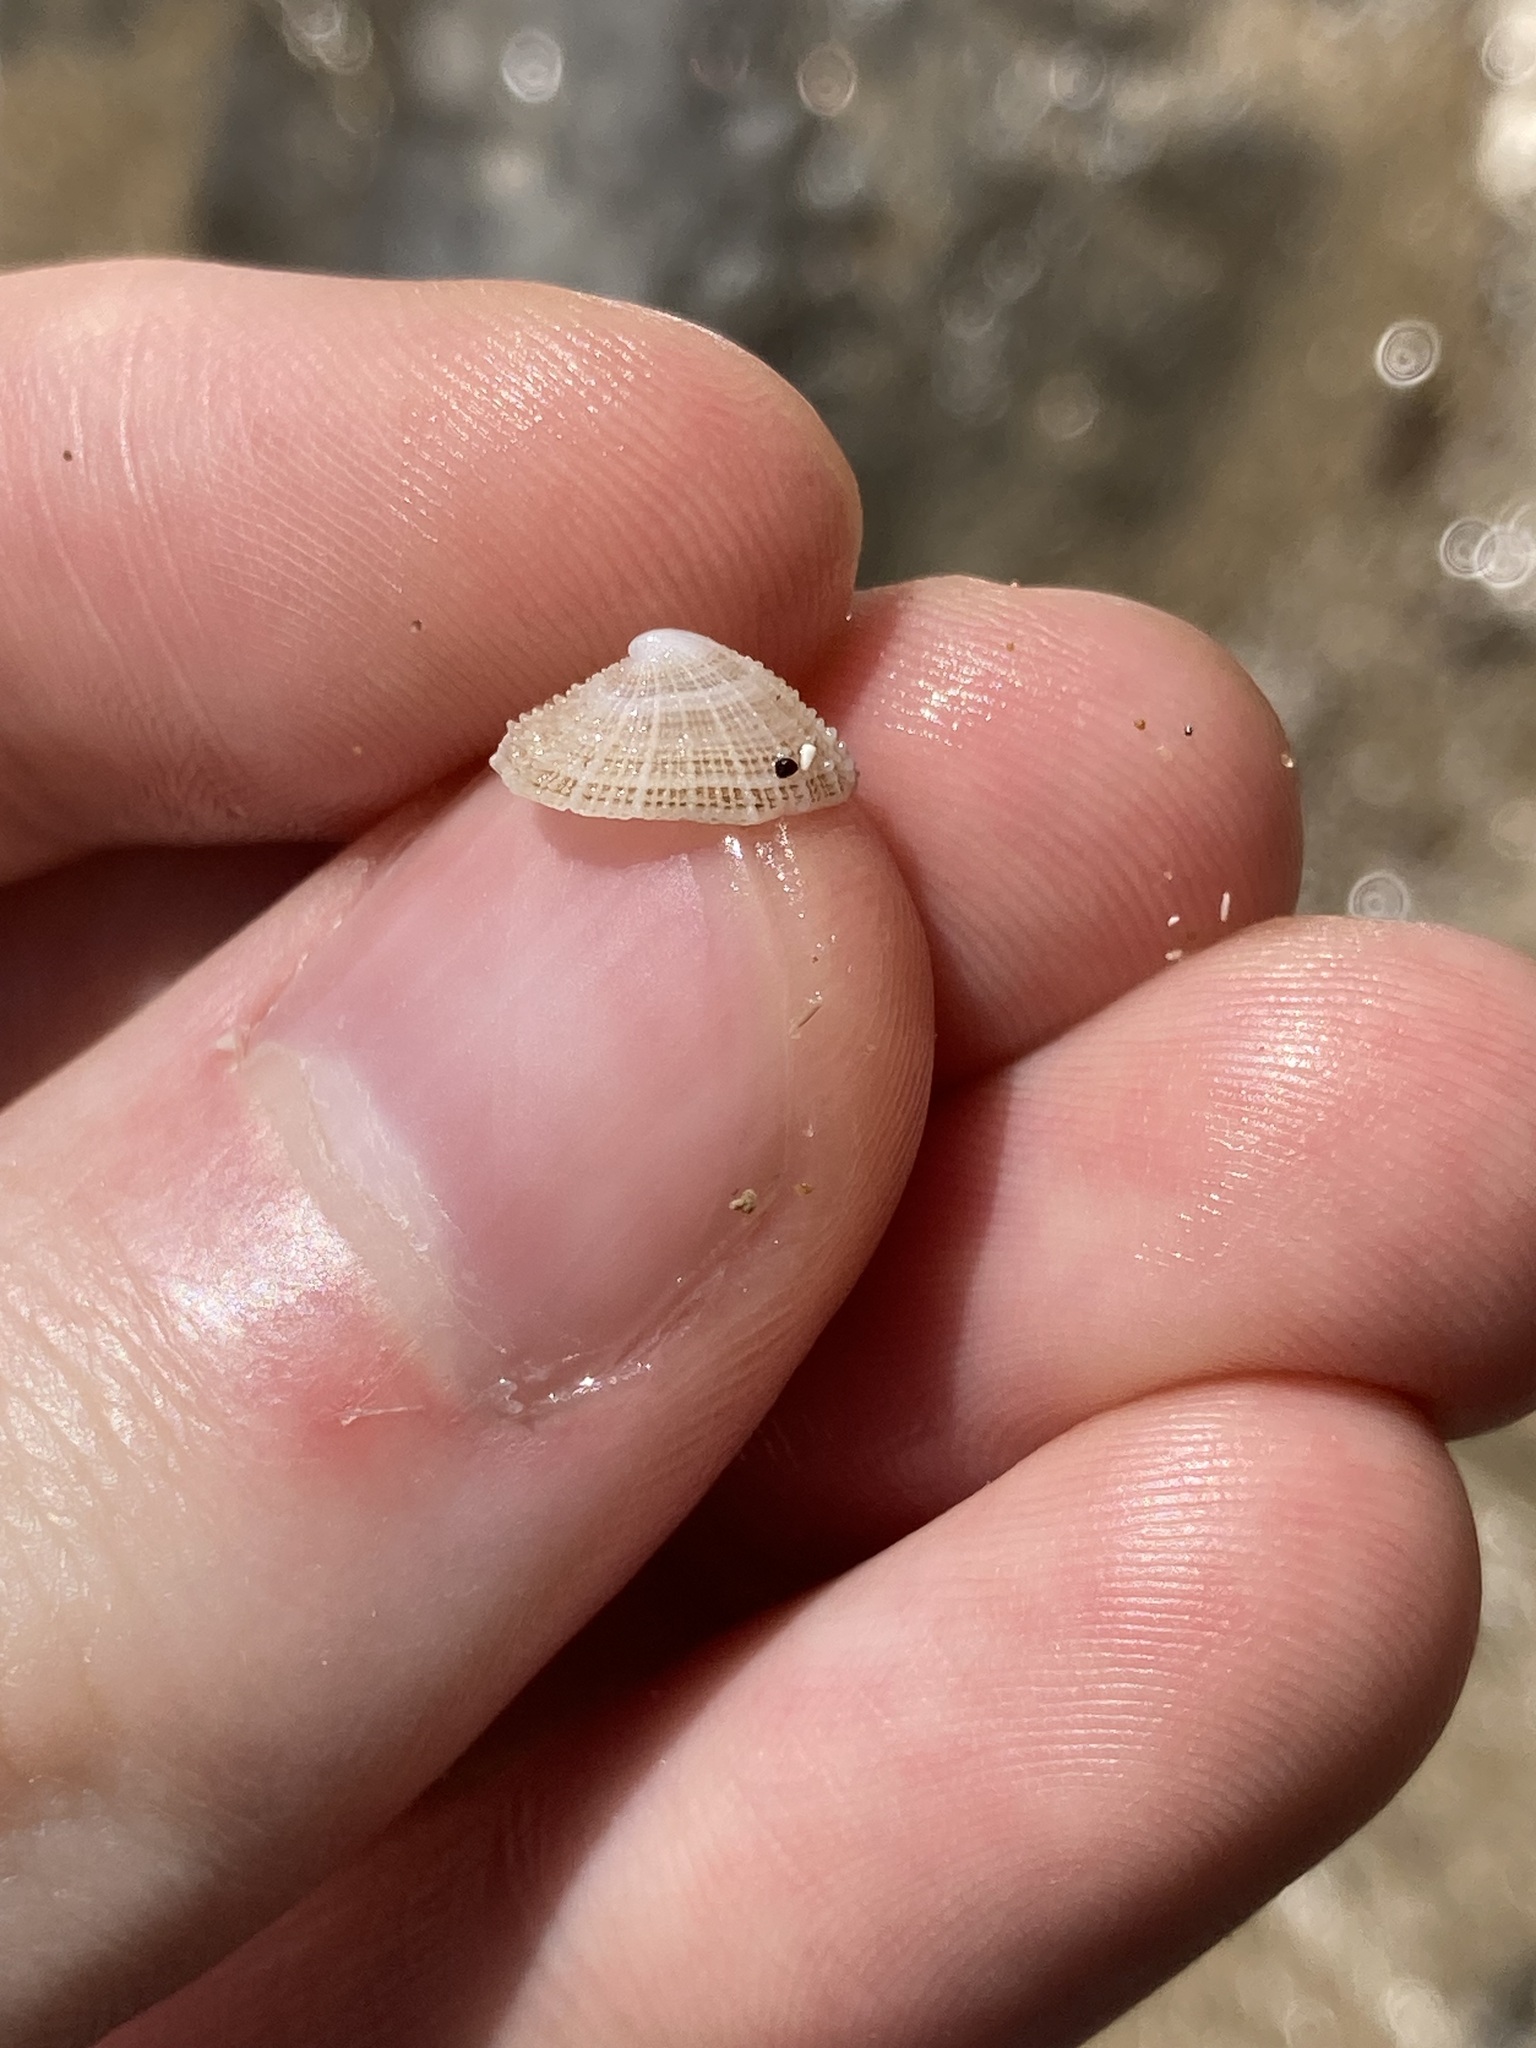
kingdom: Animalia
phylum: Mollusca
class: Gastropoda
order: Lepetellida
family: Fissurellidae
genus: Montfortula
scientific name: Montfortula rugosa
